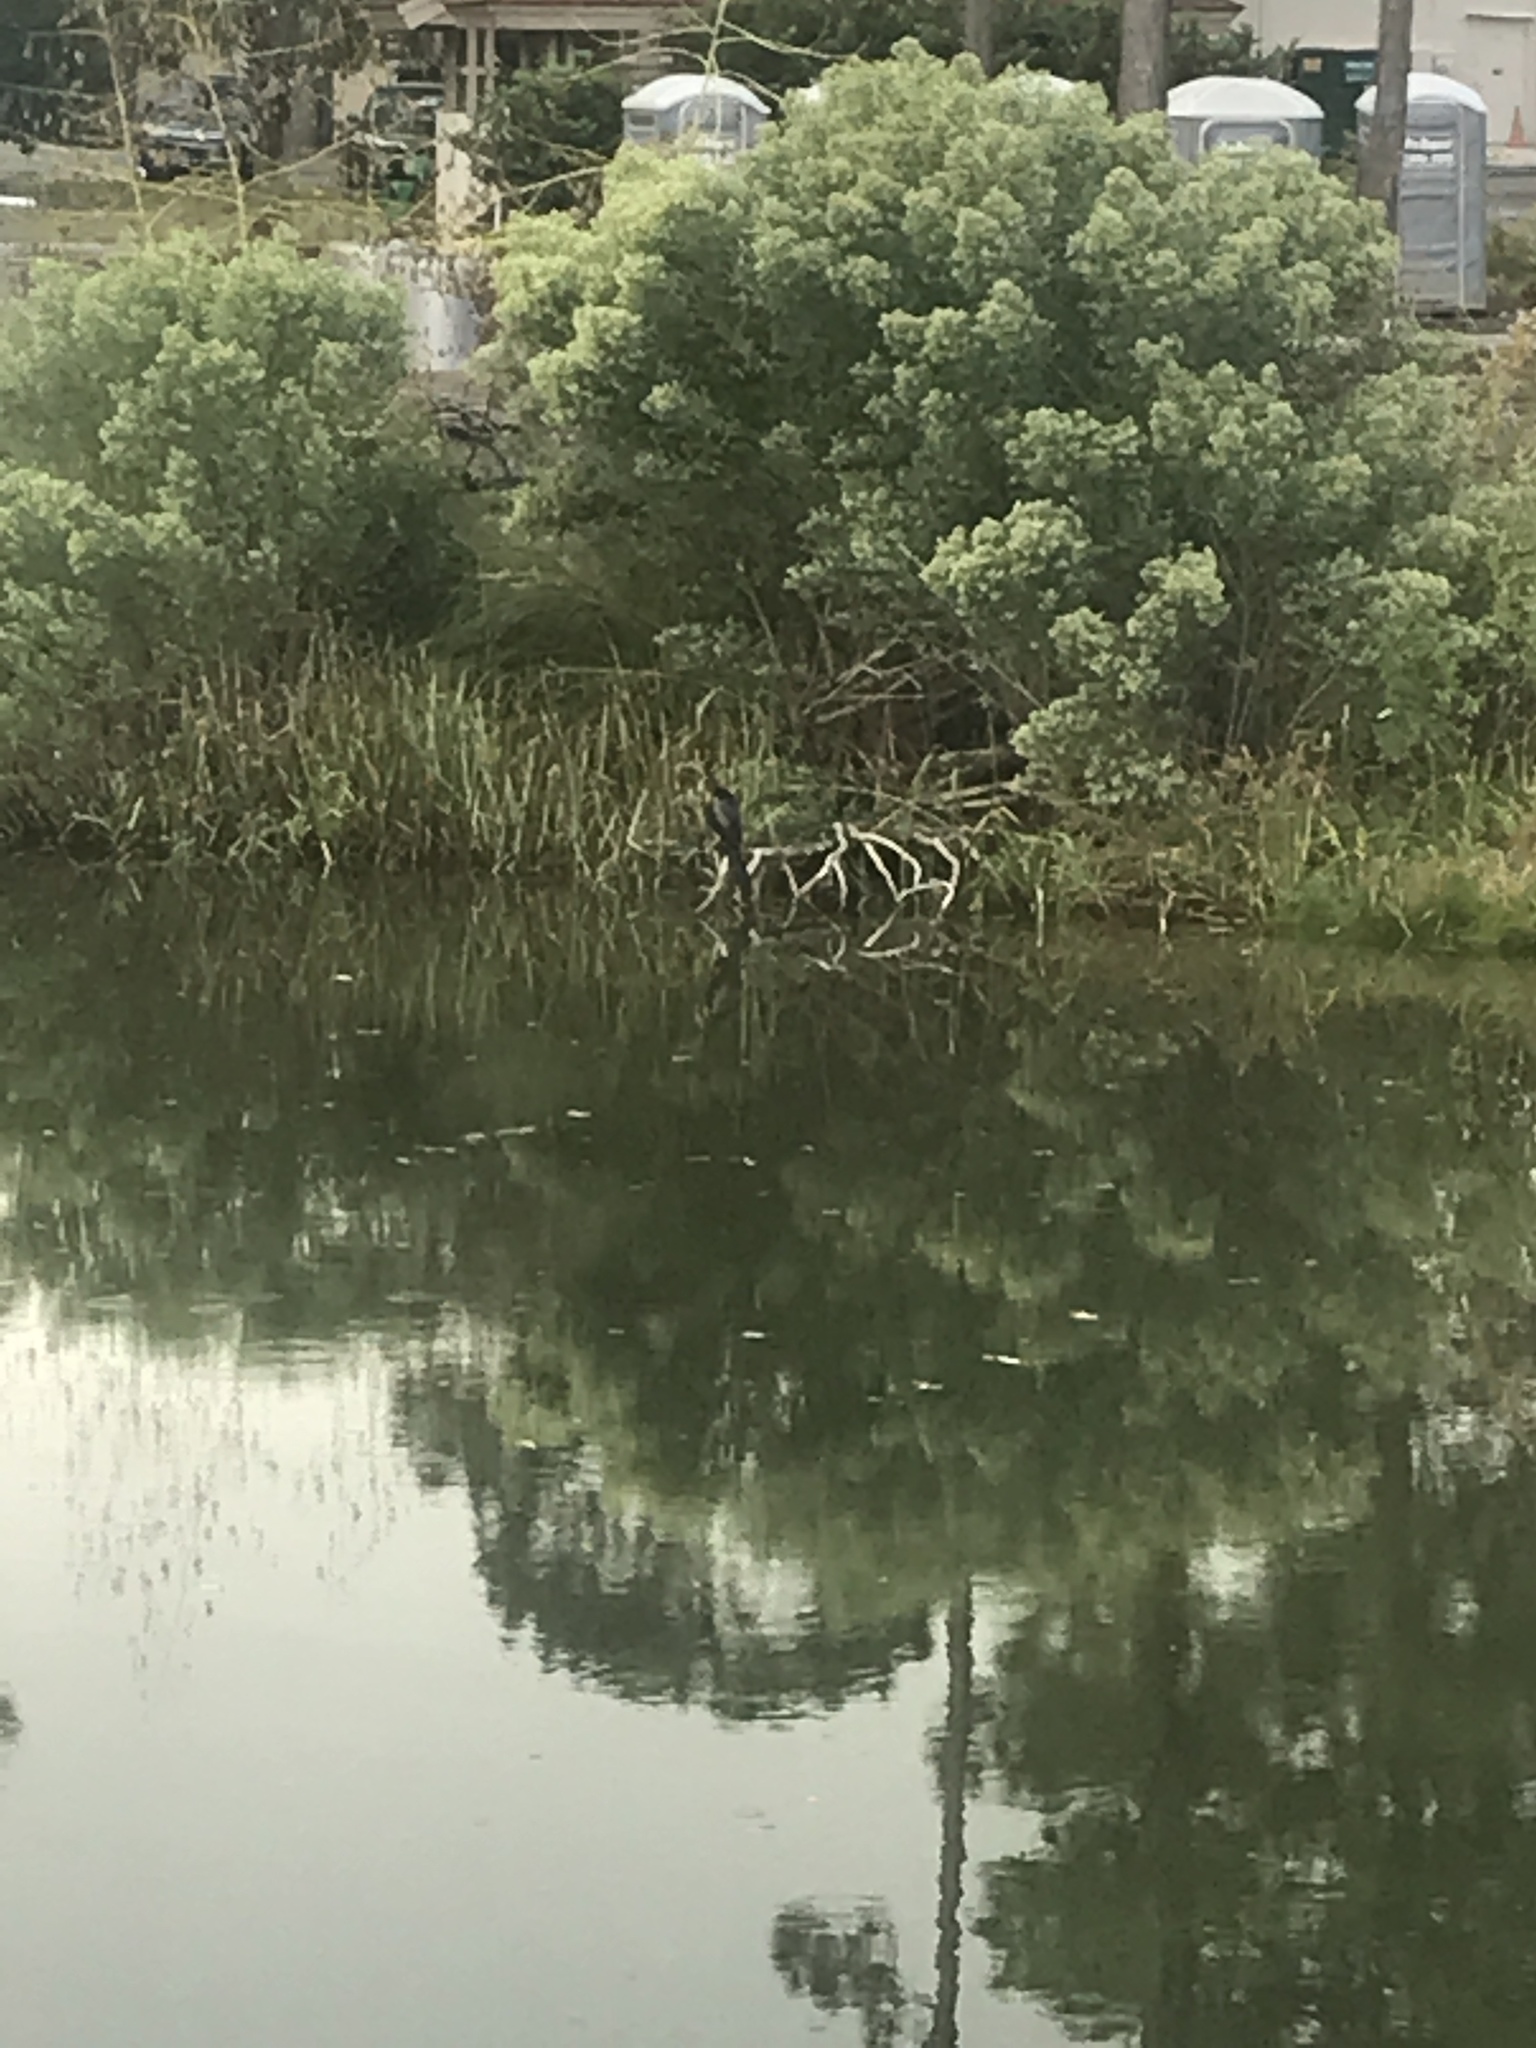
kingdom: Animalia
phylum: Chordata
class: Aves
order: Suliformes
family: Anhingidae
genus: Anhinga
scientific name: Anhinga anhinga
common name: Anhinga
